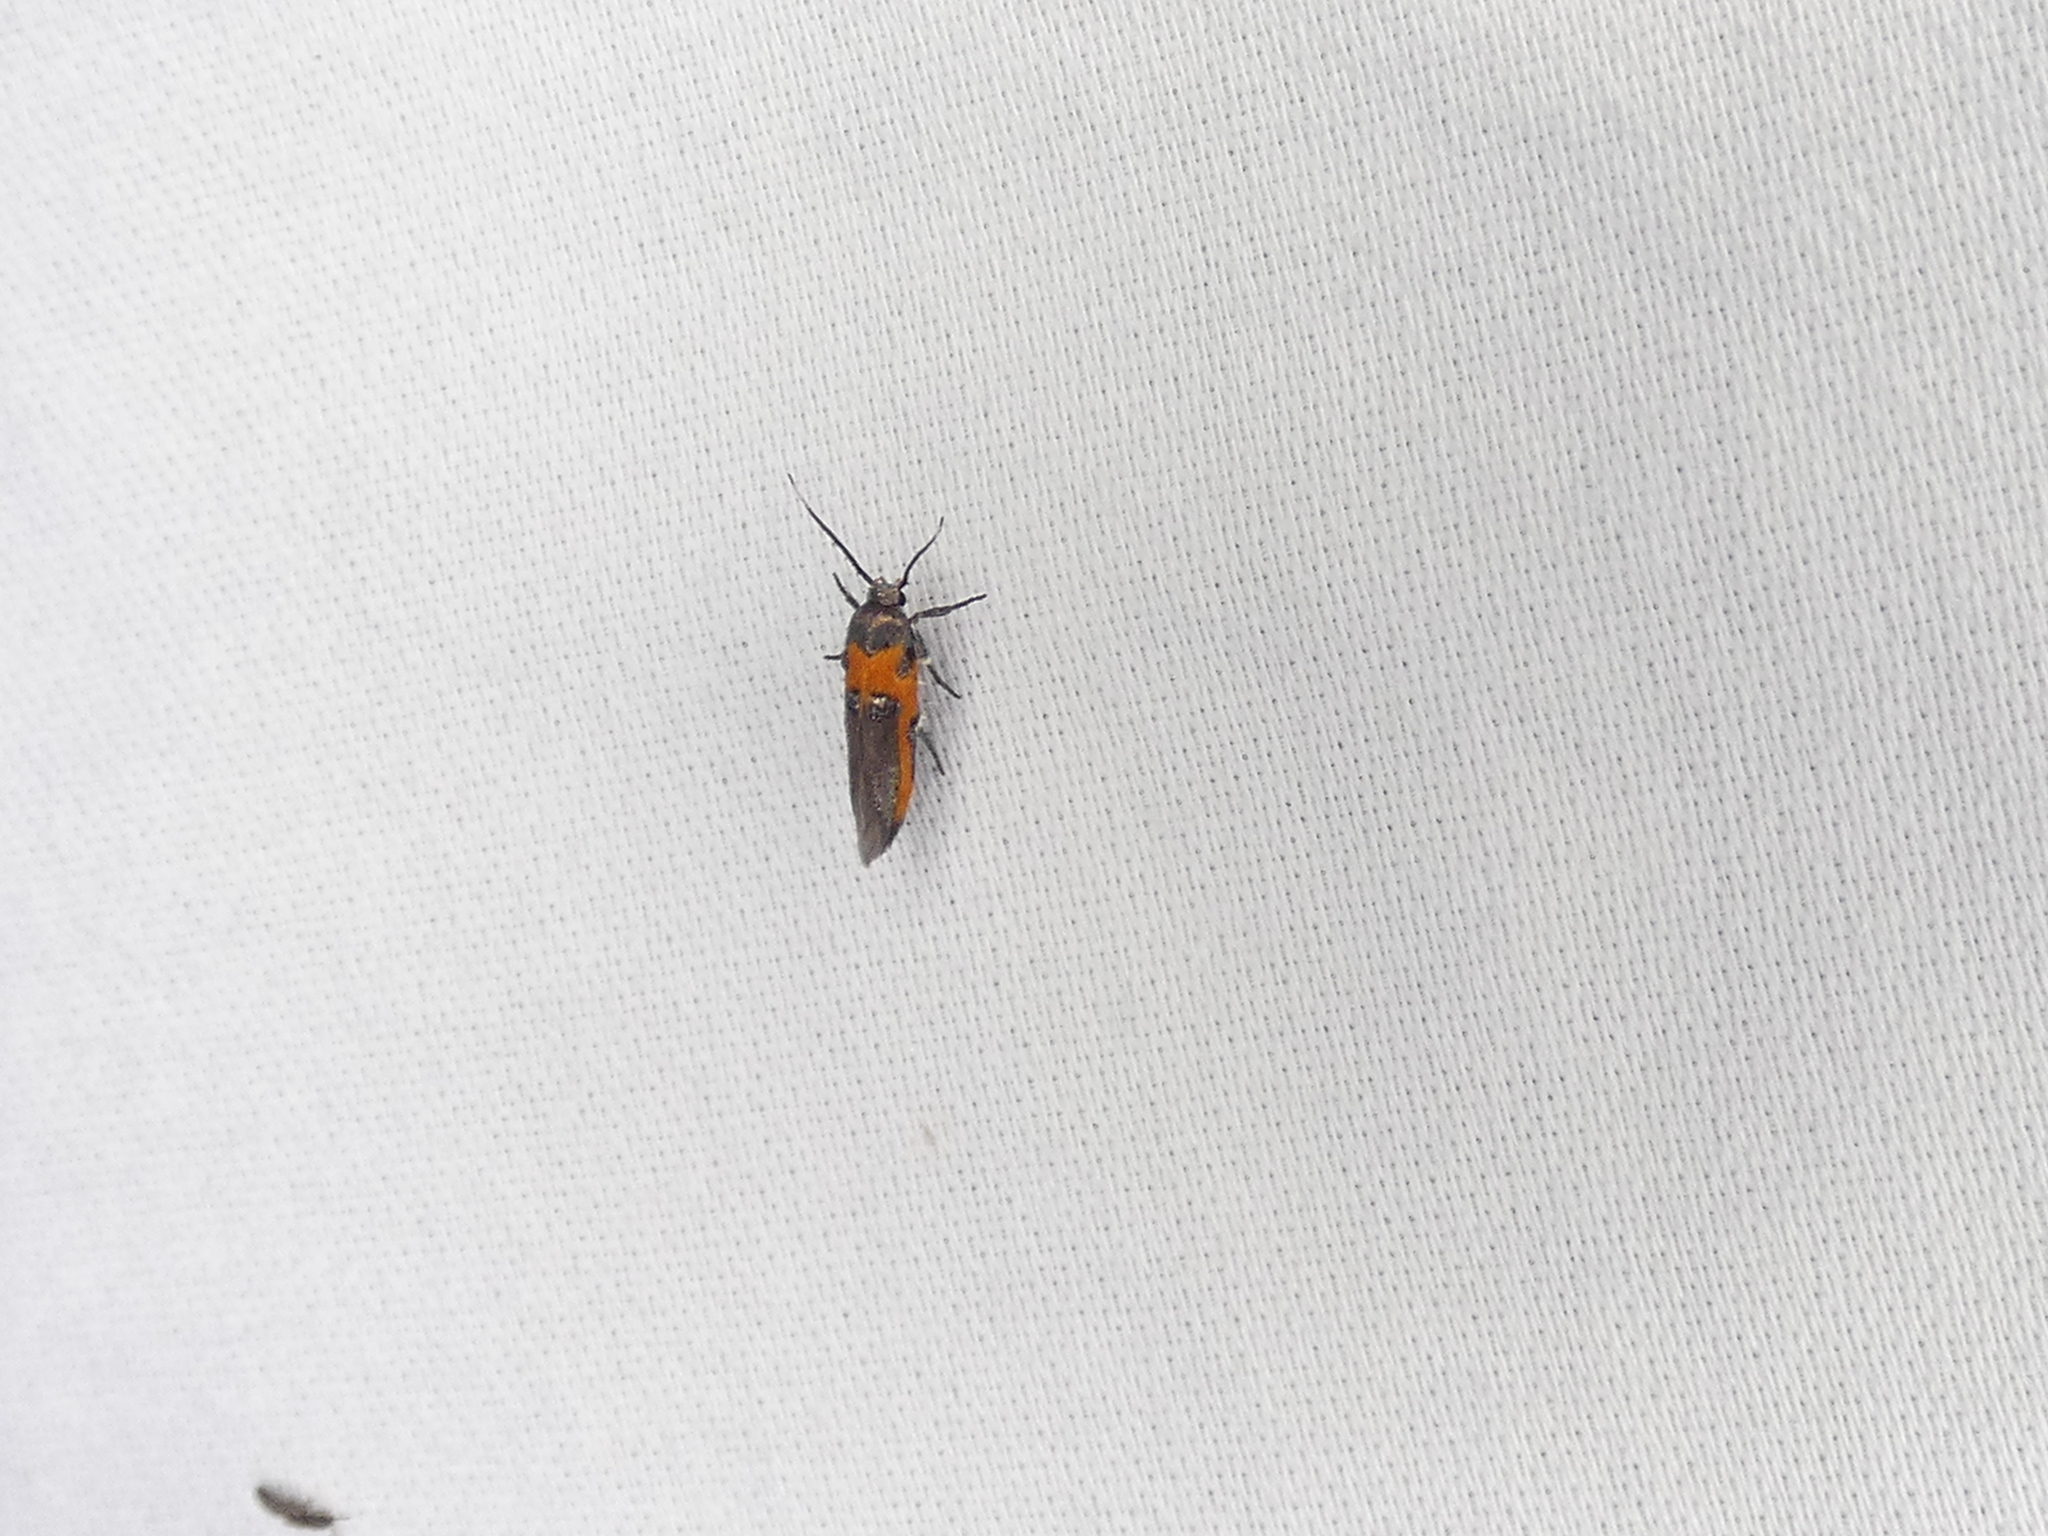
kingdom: Animalia
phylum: Arthropoda
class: Insecta
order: Lepidoptera
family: Cosmopterigidae
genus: Euclemensia
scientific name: Euclemensia bassettella
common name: Kermes scale moth
